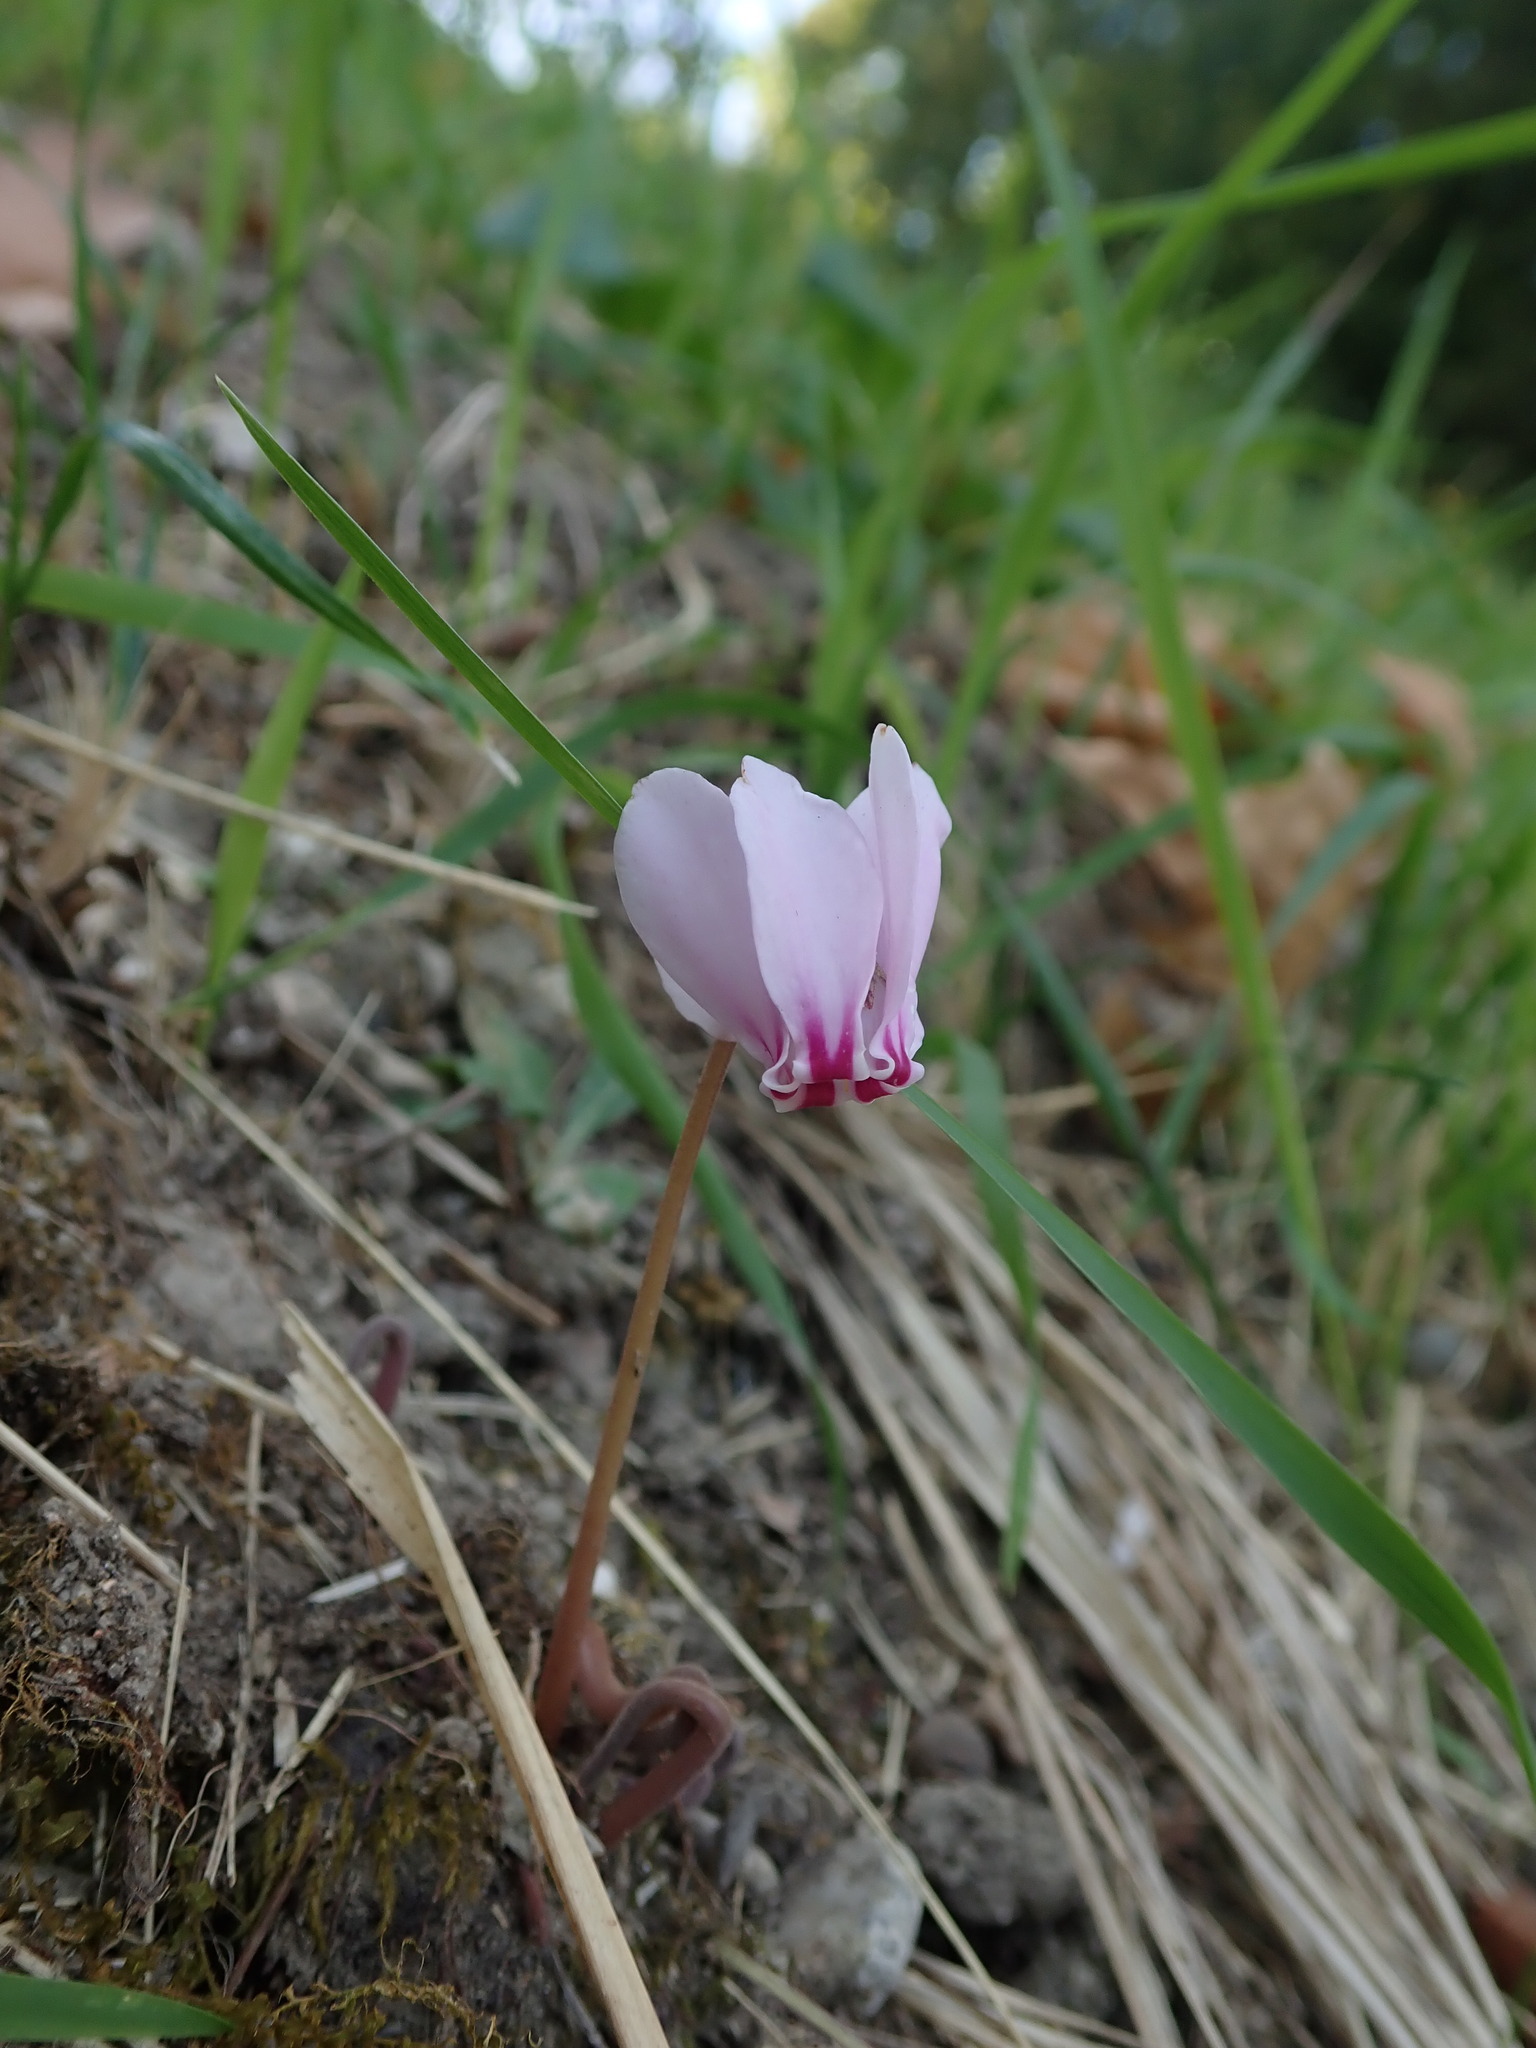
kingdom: Plantae
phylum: Tracheophyta
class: Magnoliopsida
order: Ericales
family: Primulaceae
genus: Cyclamen
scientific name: Cyclamen hederifolium
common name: Sowbread
